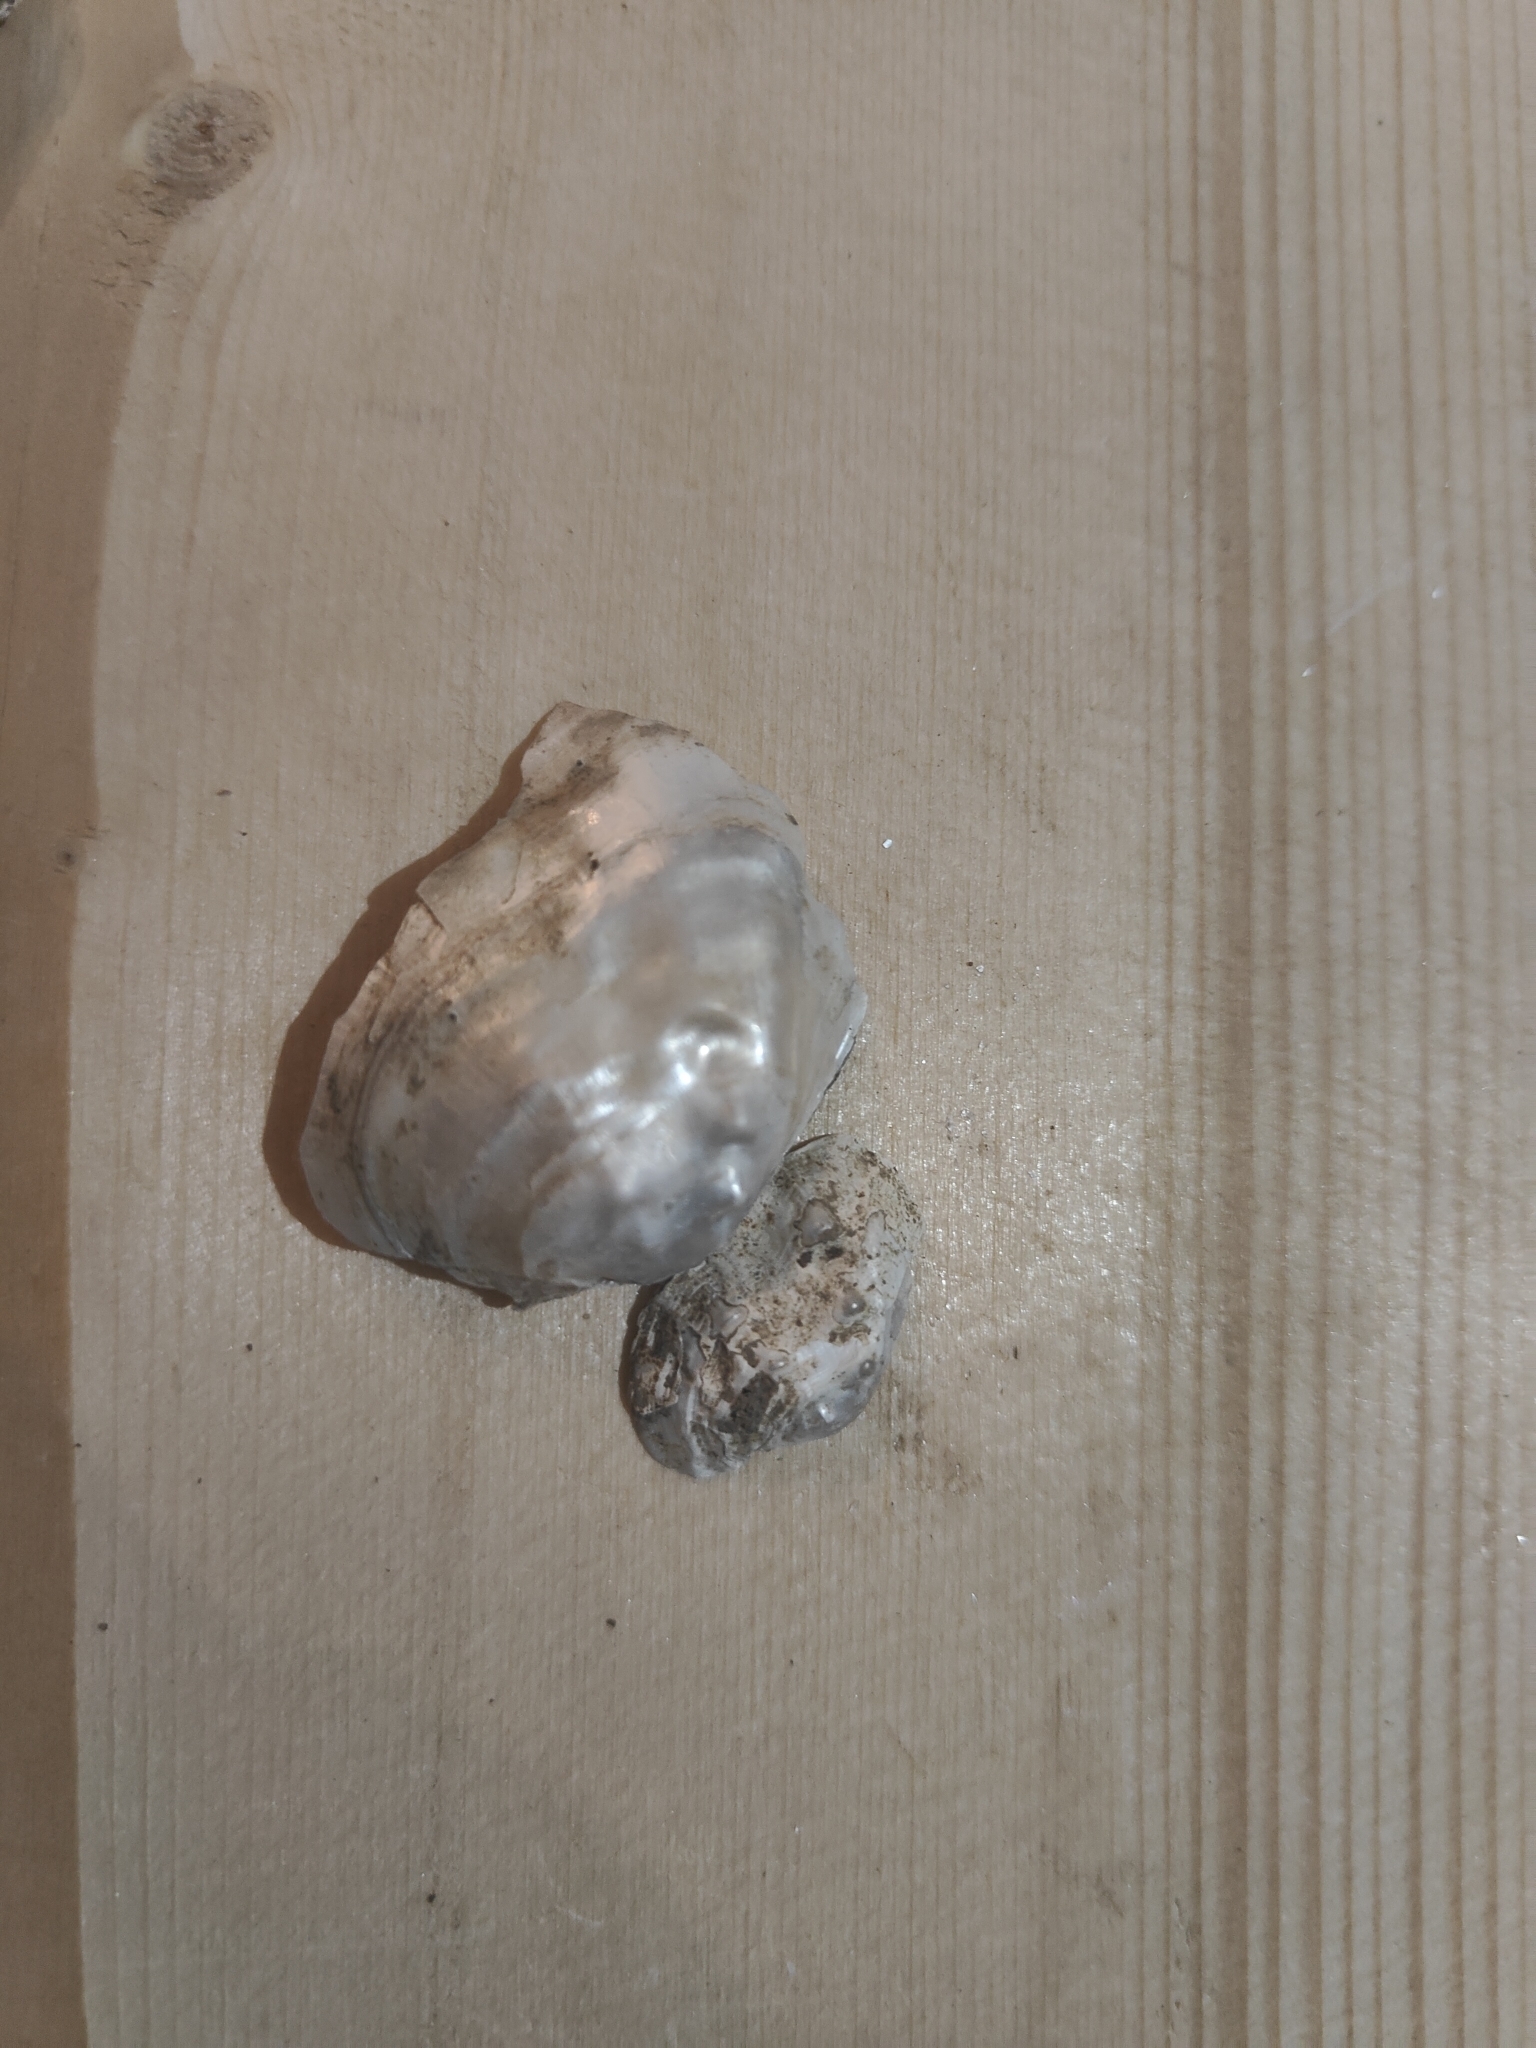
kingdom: Animalia
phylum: Mollusca
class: Bivalvia
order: Unionida
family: Unionidae
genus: Arcidens
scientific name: Arcidens confragosus
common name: Rock pocketbook
